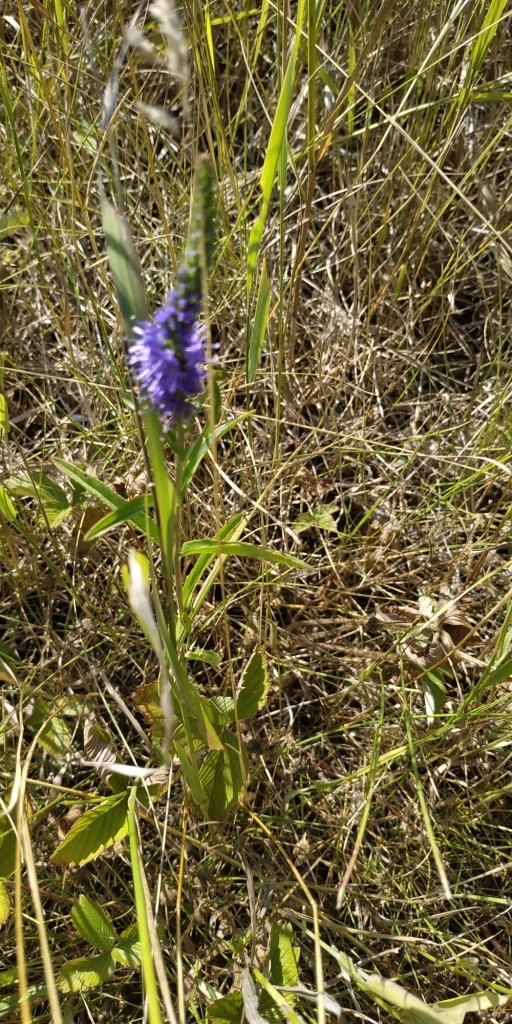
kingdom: Plantae
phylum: Tracheophyta
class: Magnoliopsida
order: Lamiales
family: Plantaginaceae
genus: Veronica
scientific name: Veronica spicata
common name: Spiked speedwell
